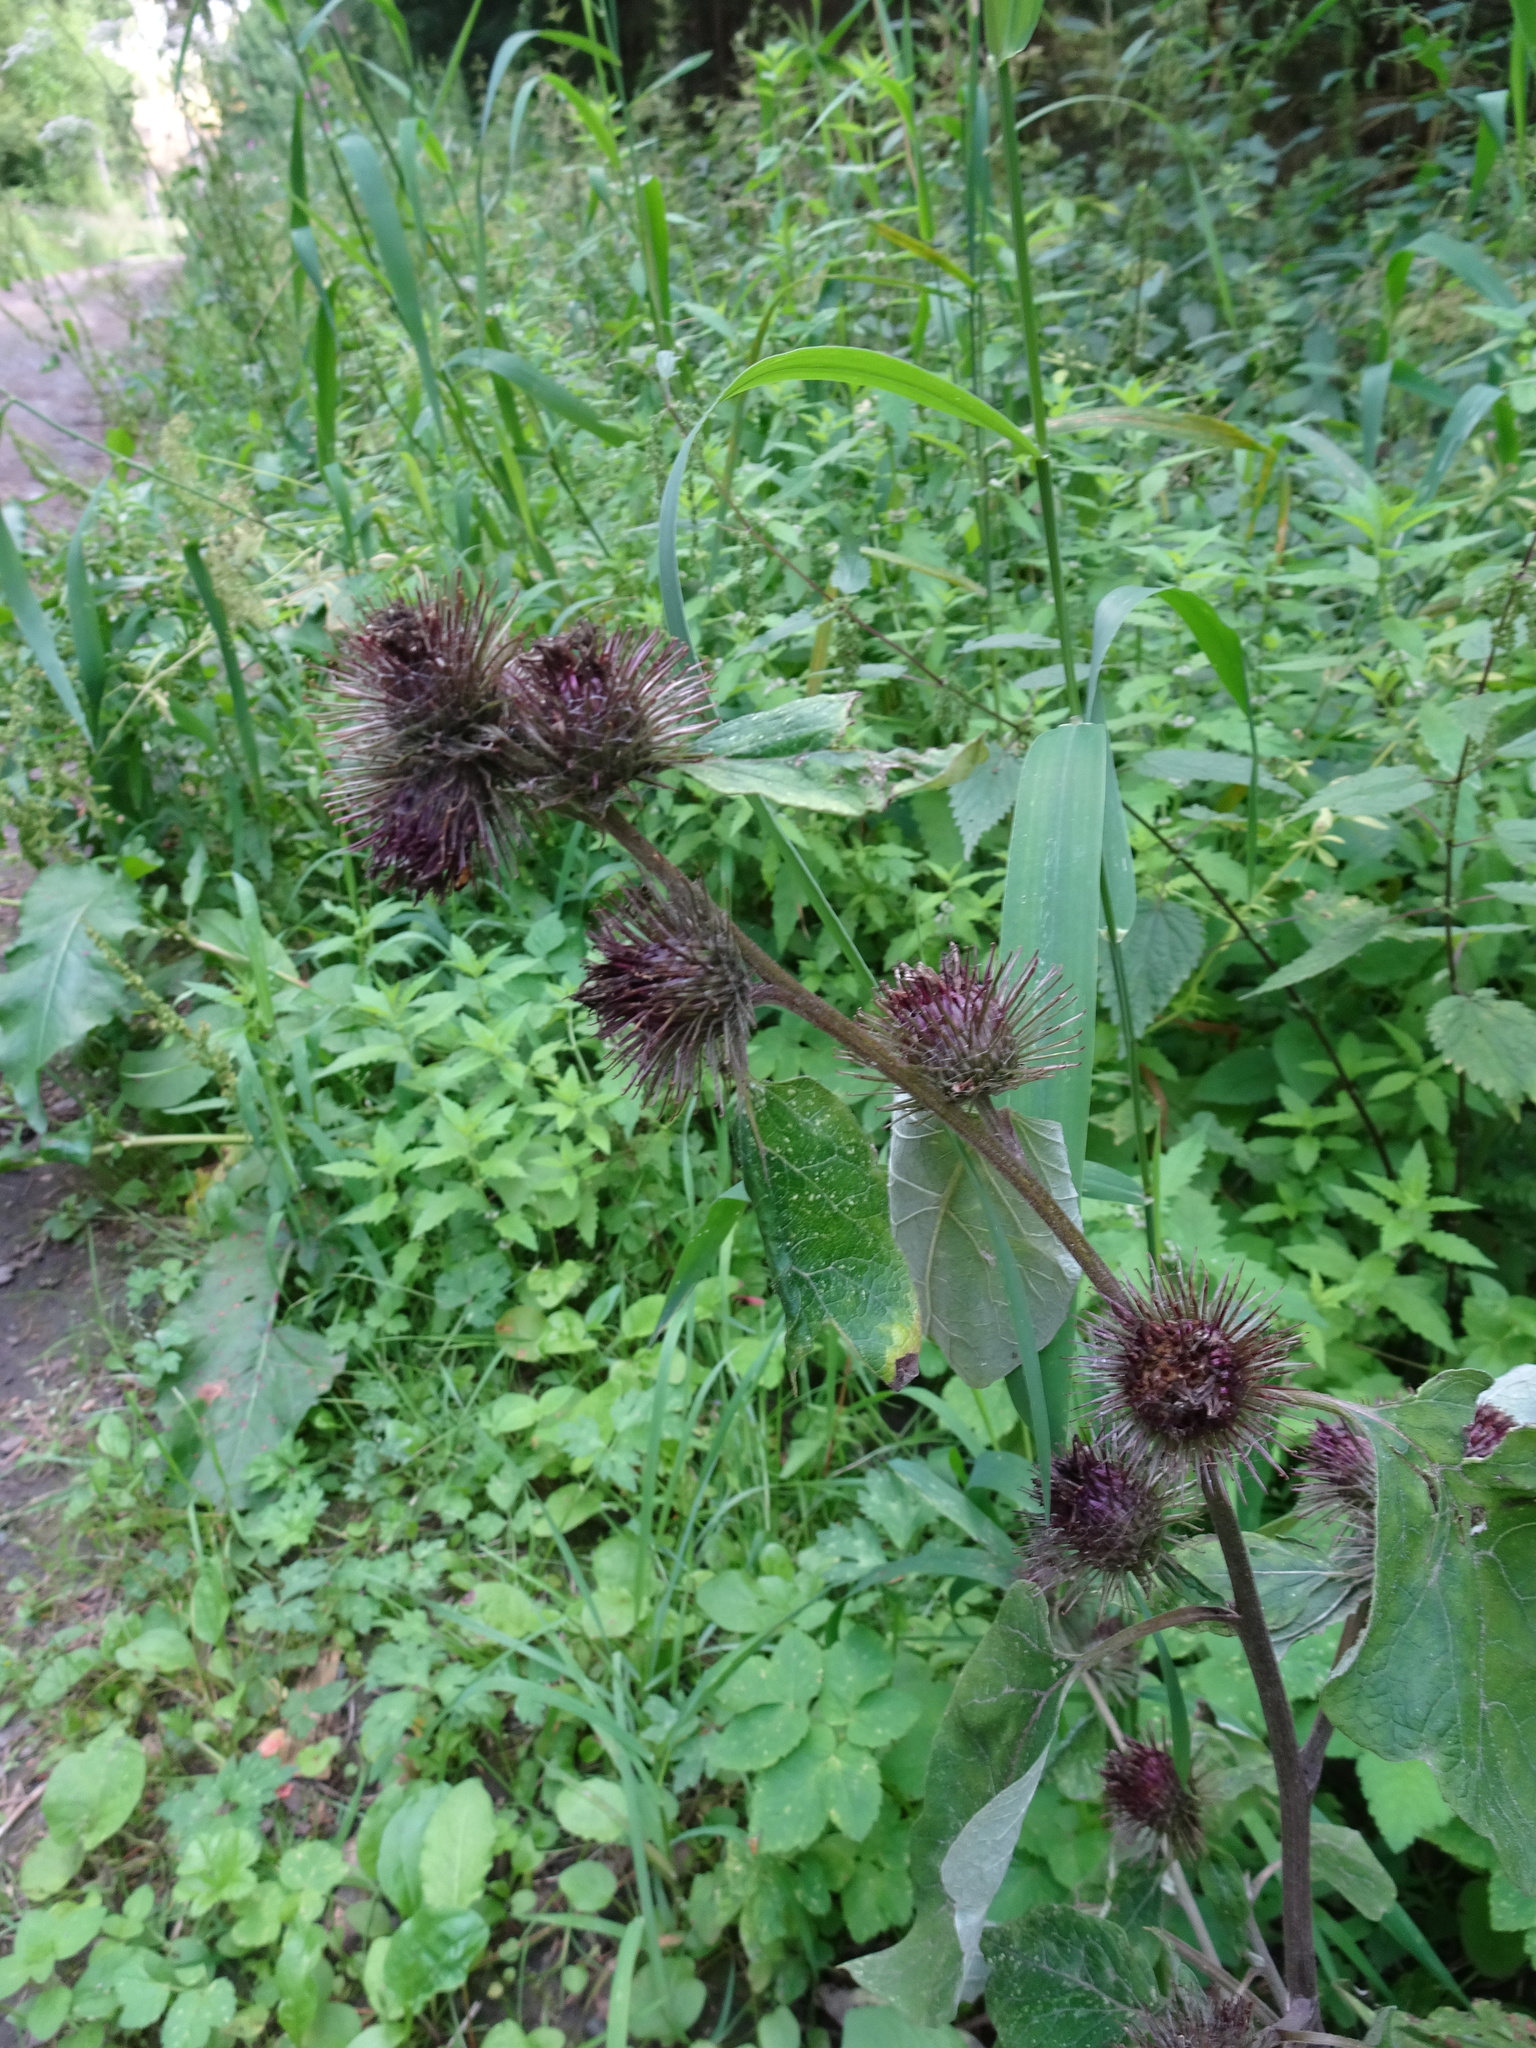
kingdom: Plantae
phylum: Tracheophyta
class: Magnoliopsida
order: Asterales
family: Asteraceae
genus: Arctium
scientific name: Arctium minus
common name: Lesser burdock
